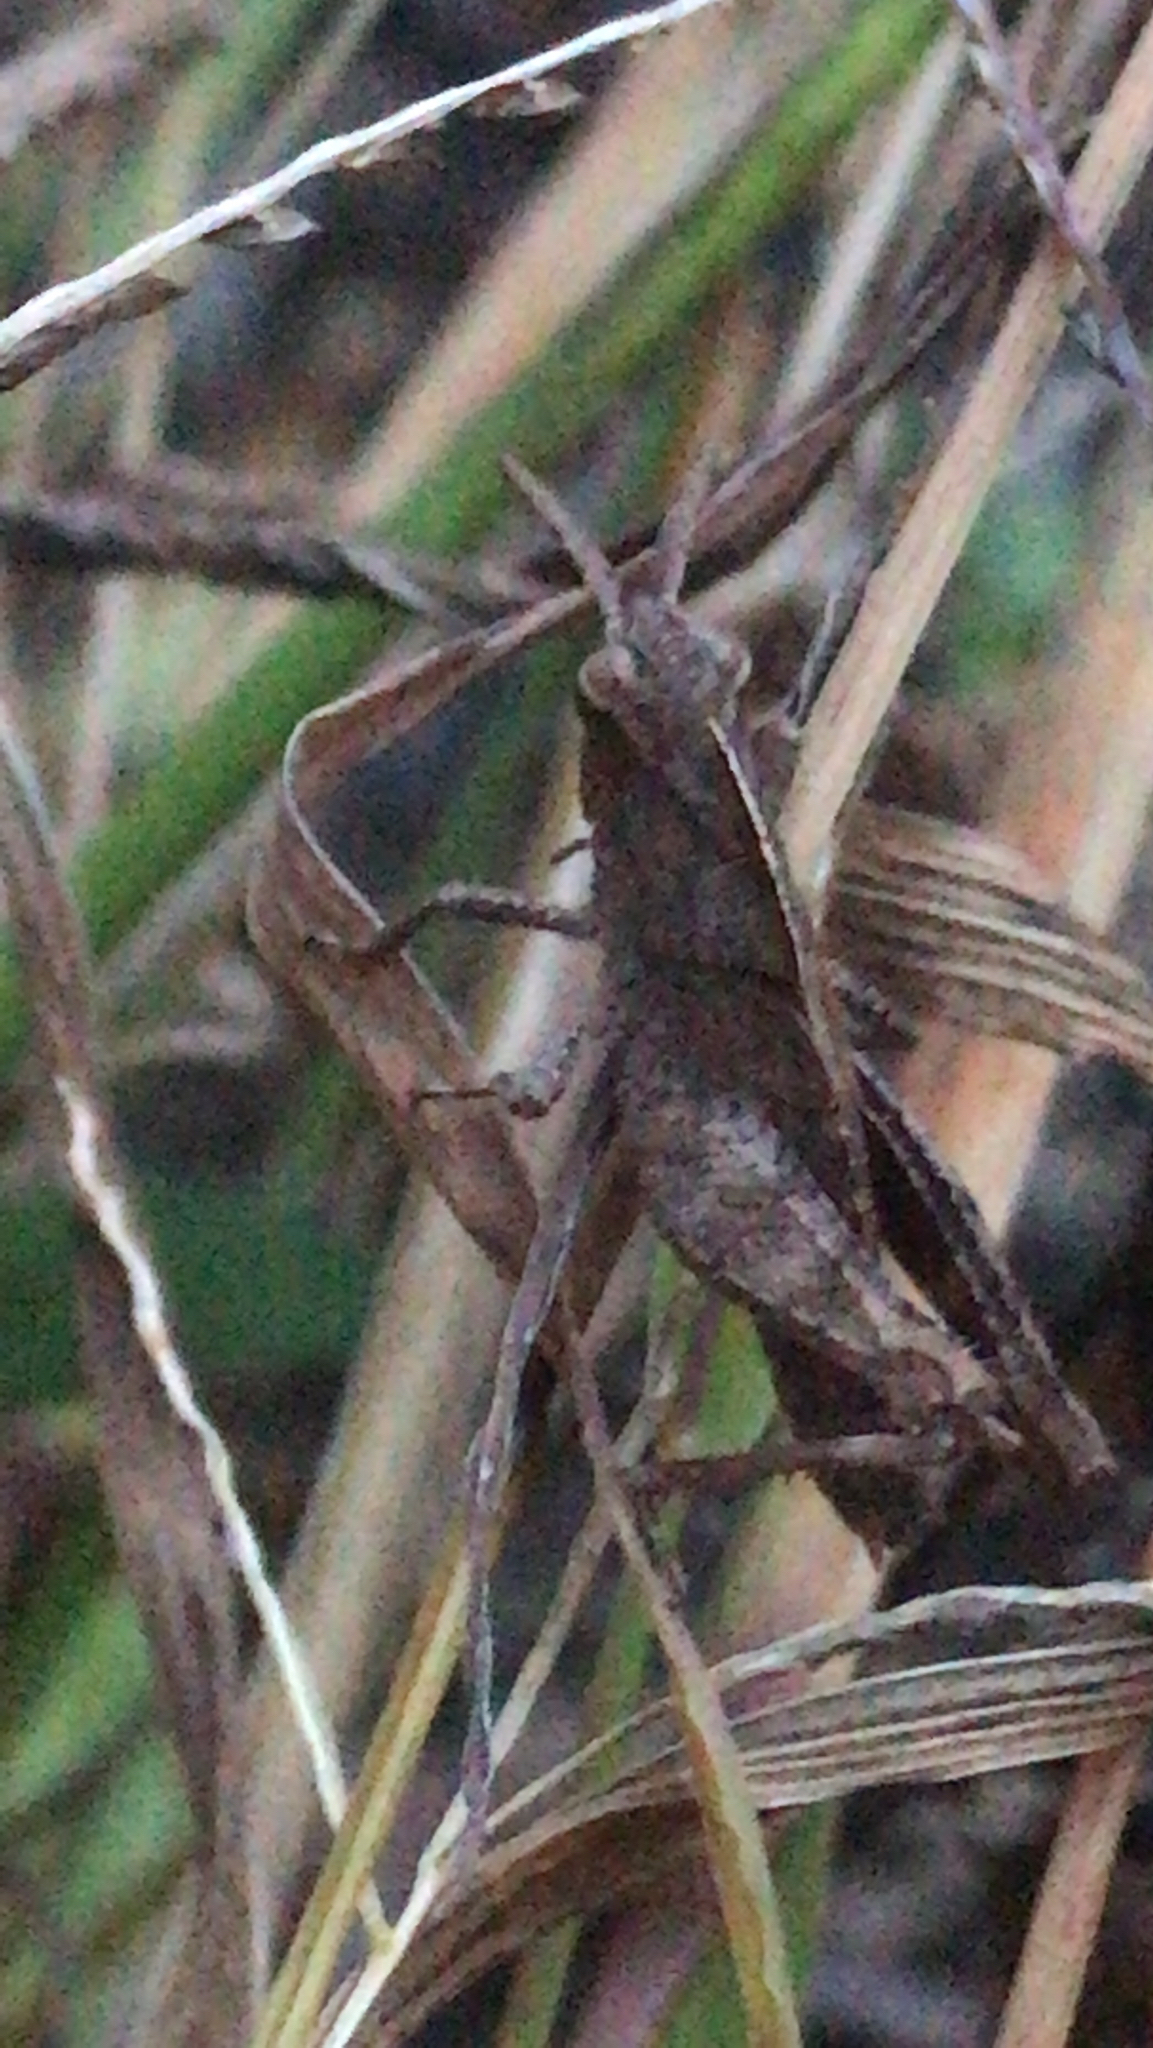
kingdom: Animalia
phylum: Arthropoda
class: Insecta
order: Orthoptera
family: Acrididae
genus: Chortophaga
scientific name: Chortophaga viridifasciata
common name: Green-striped grasshopper
